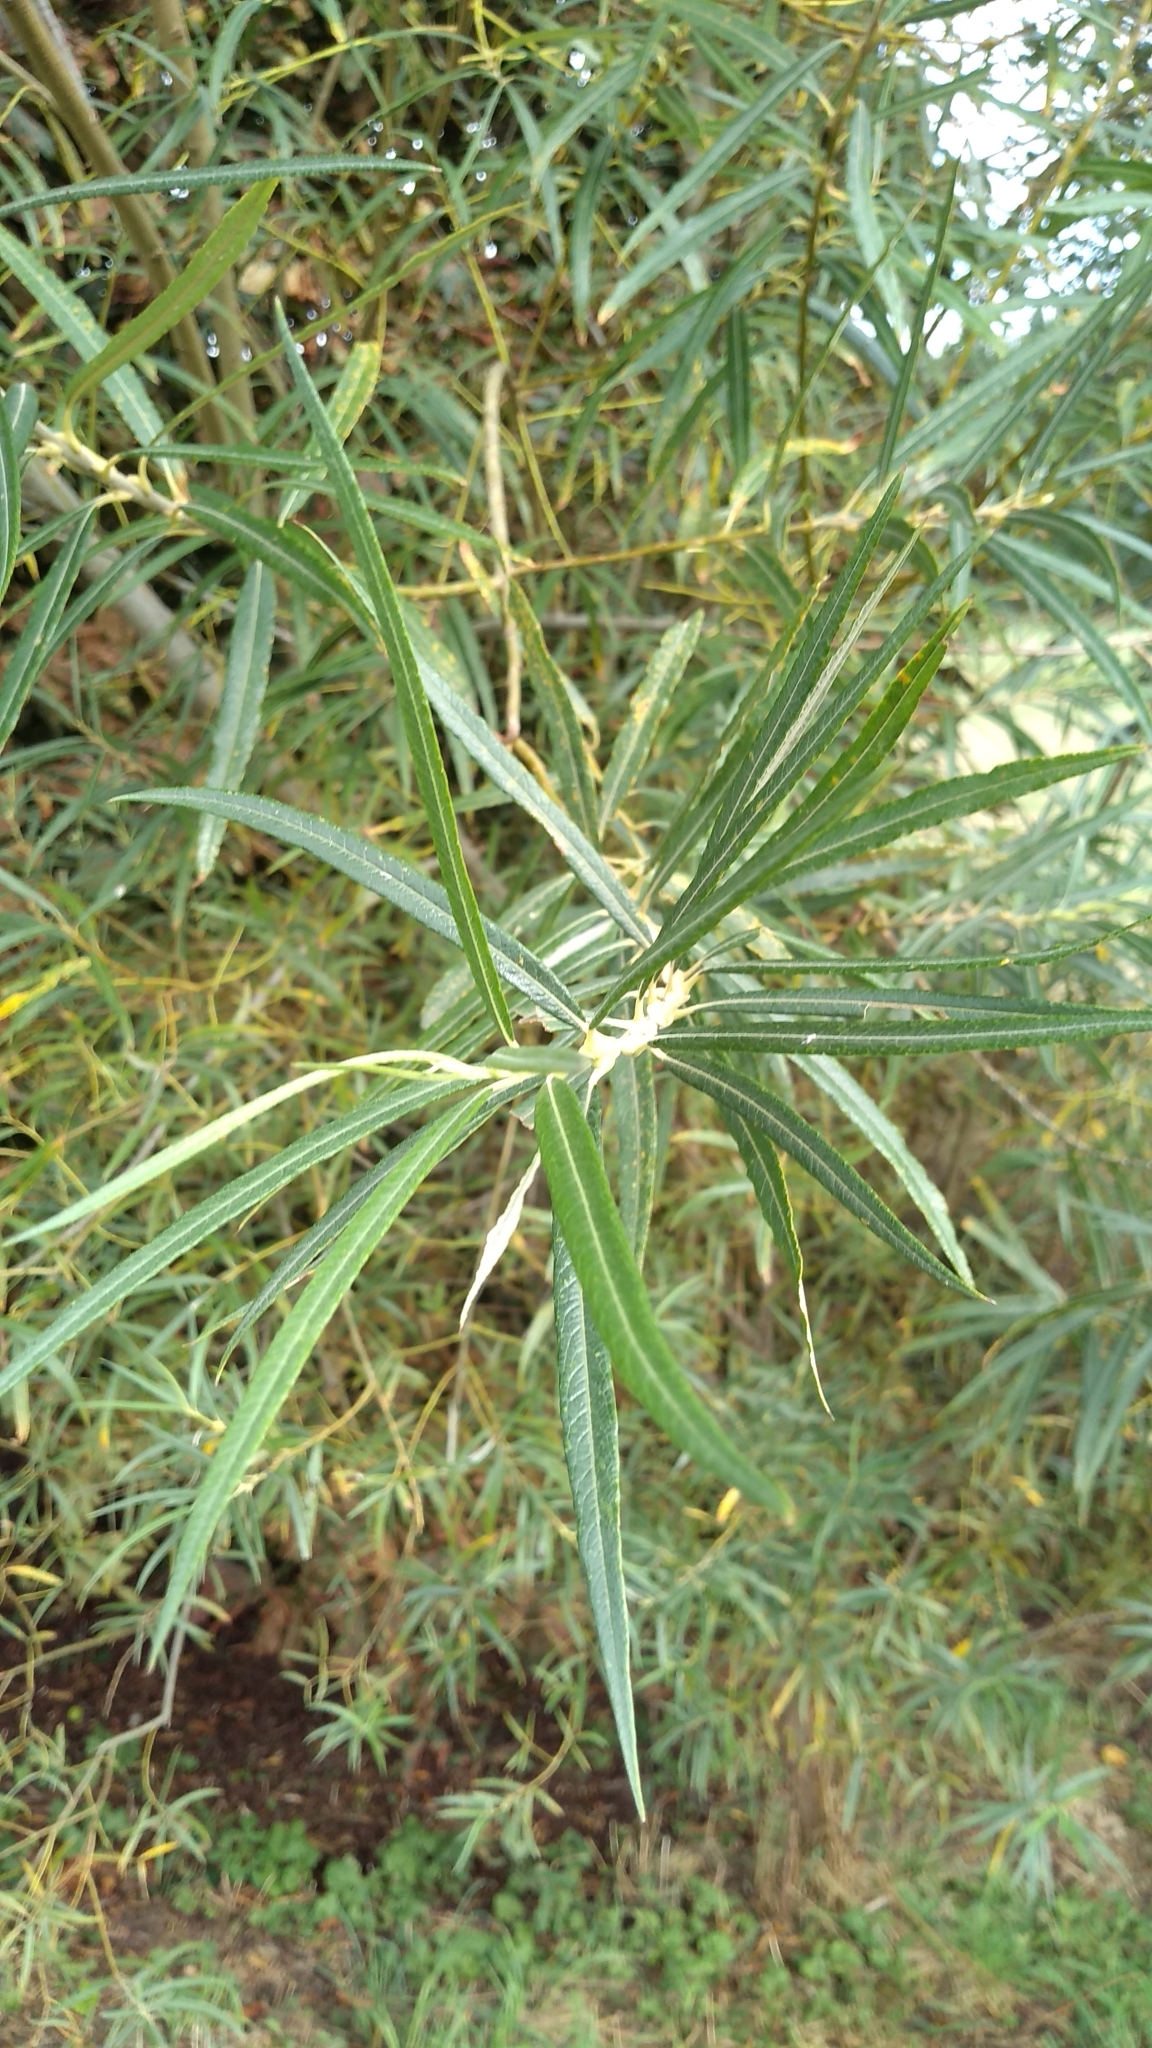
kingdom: Plantae
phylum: Tracheophyta
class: Magnoliopsida
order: Malpighiales
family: Salicaceae
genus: Salix
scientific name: Salix viminalis
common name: Osier
